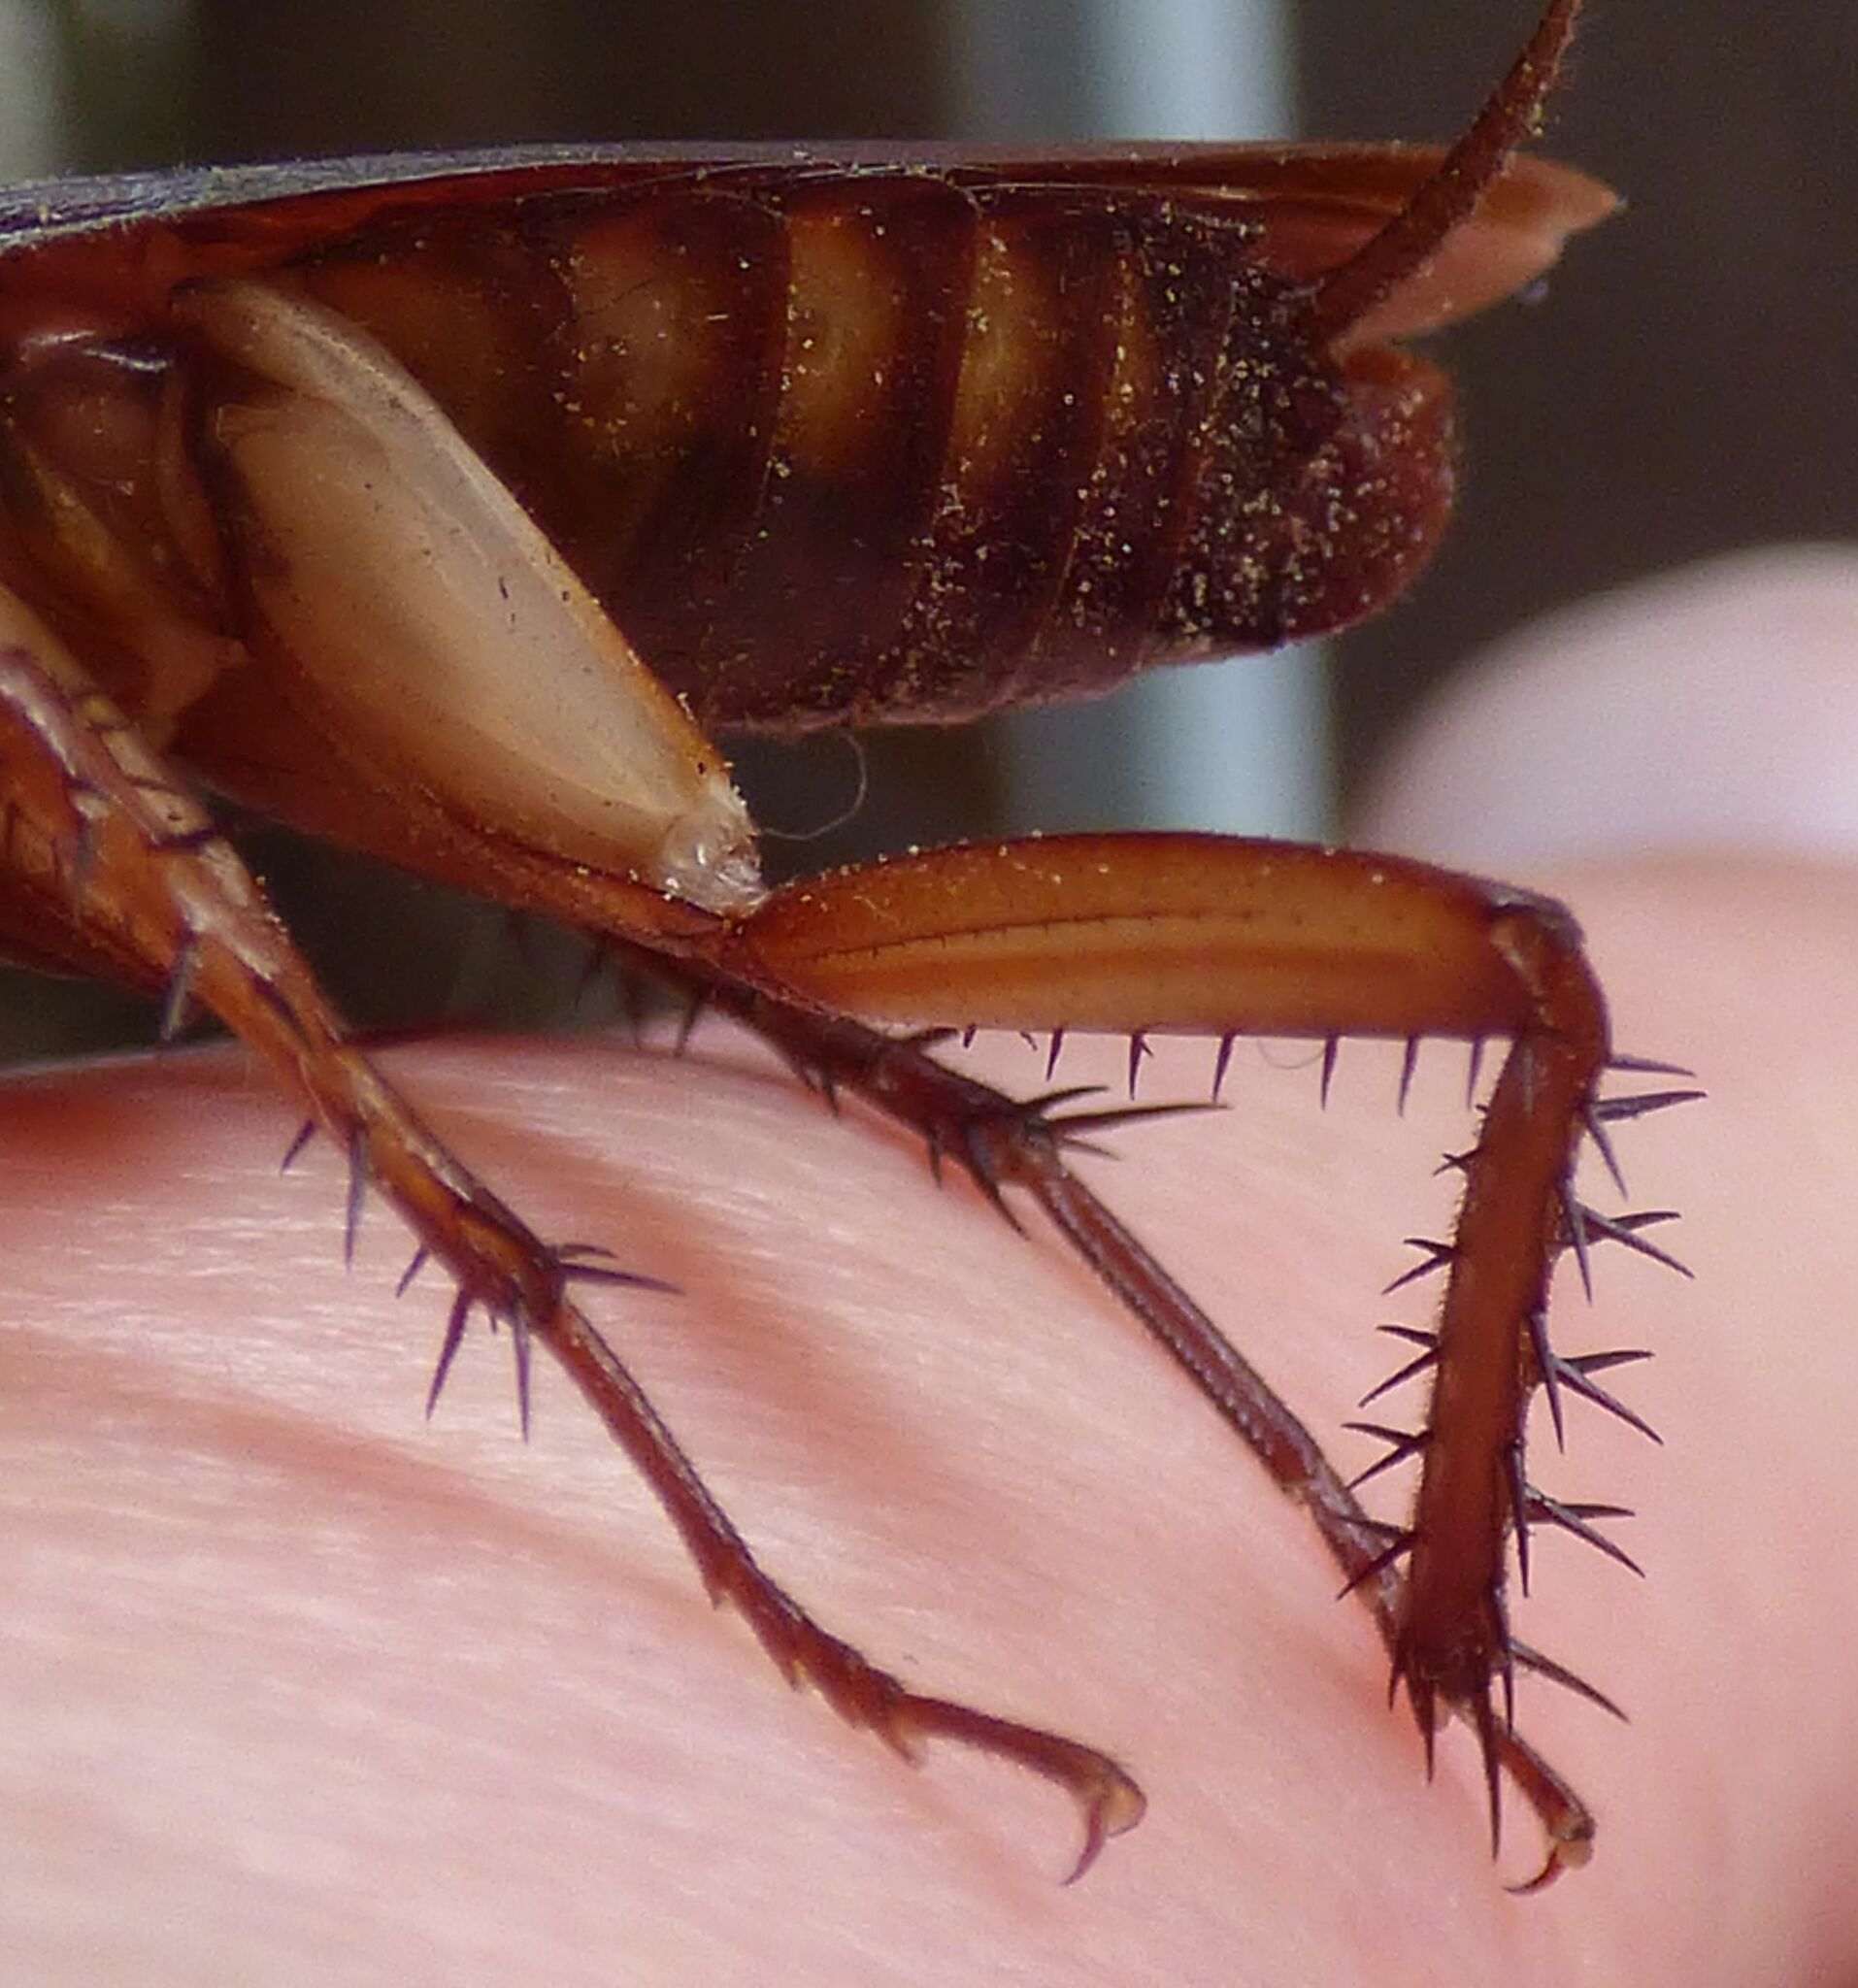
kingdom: Animalia
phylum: Arthropoda
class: Insecta
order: Blattodea
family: Blattidae
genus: Periplaneta
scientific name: Periplaneta americana
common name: American cockroach
